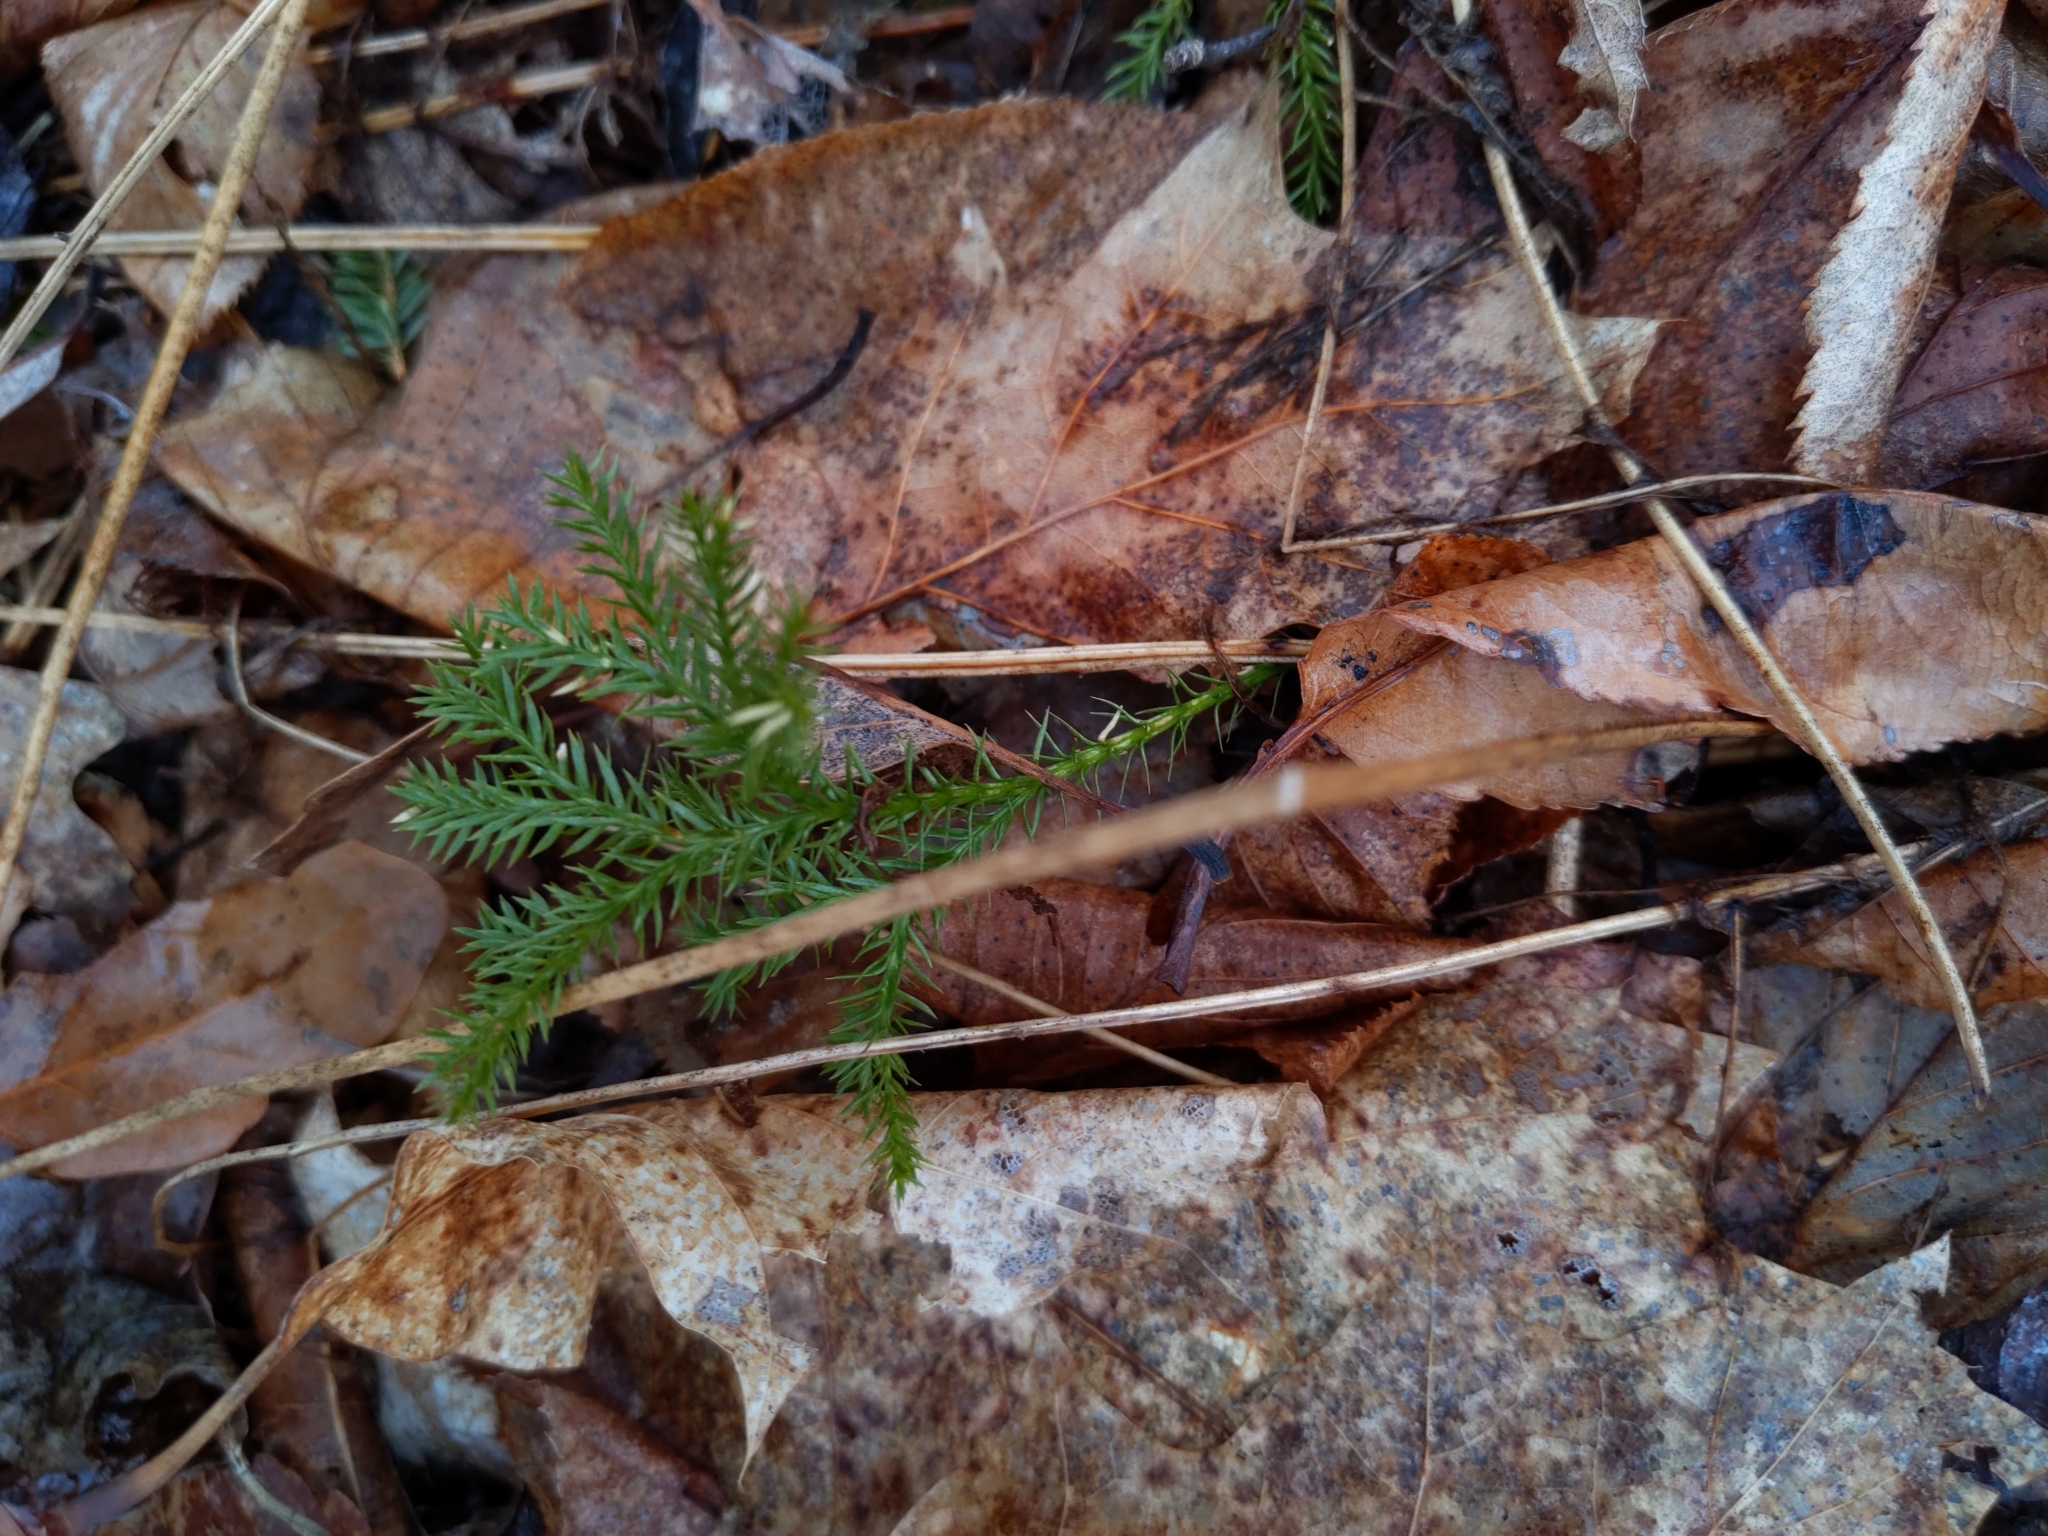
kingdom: Plantae
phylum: Tracheophyta
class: Lycopodiopsida
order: Lycopodiales
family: Lycopodiaceae
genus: Dendrolycopodium
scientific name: Dendrolycopodium dendroideum
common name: Northern tree-clubmoss
